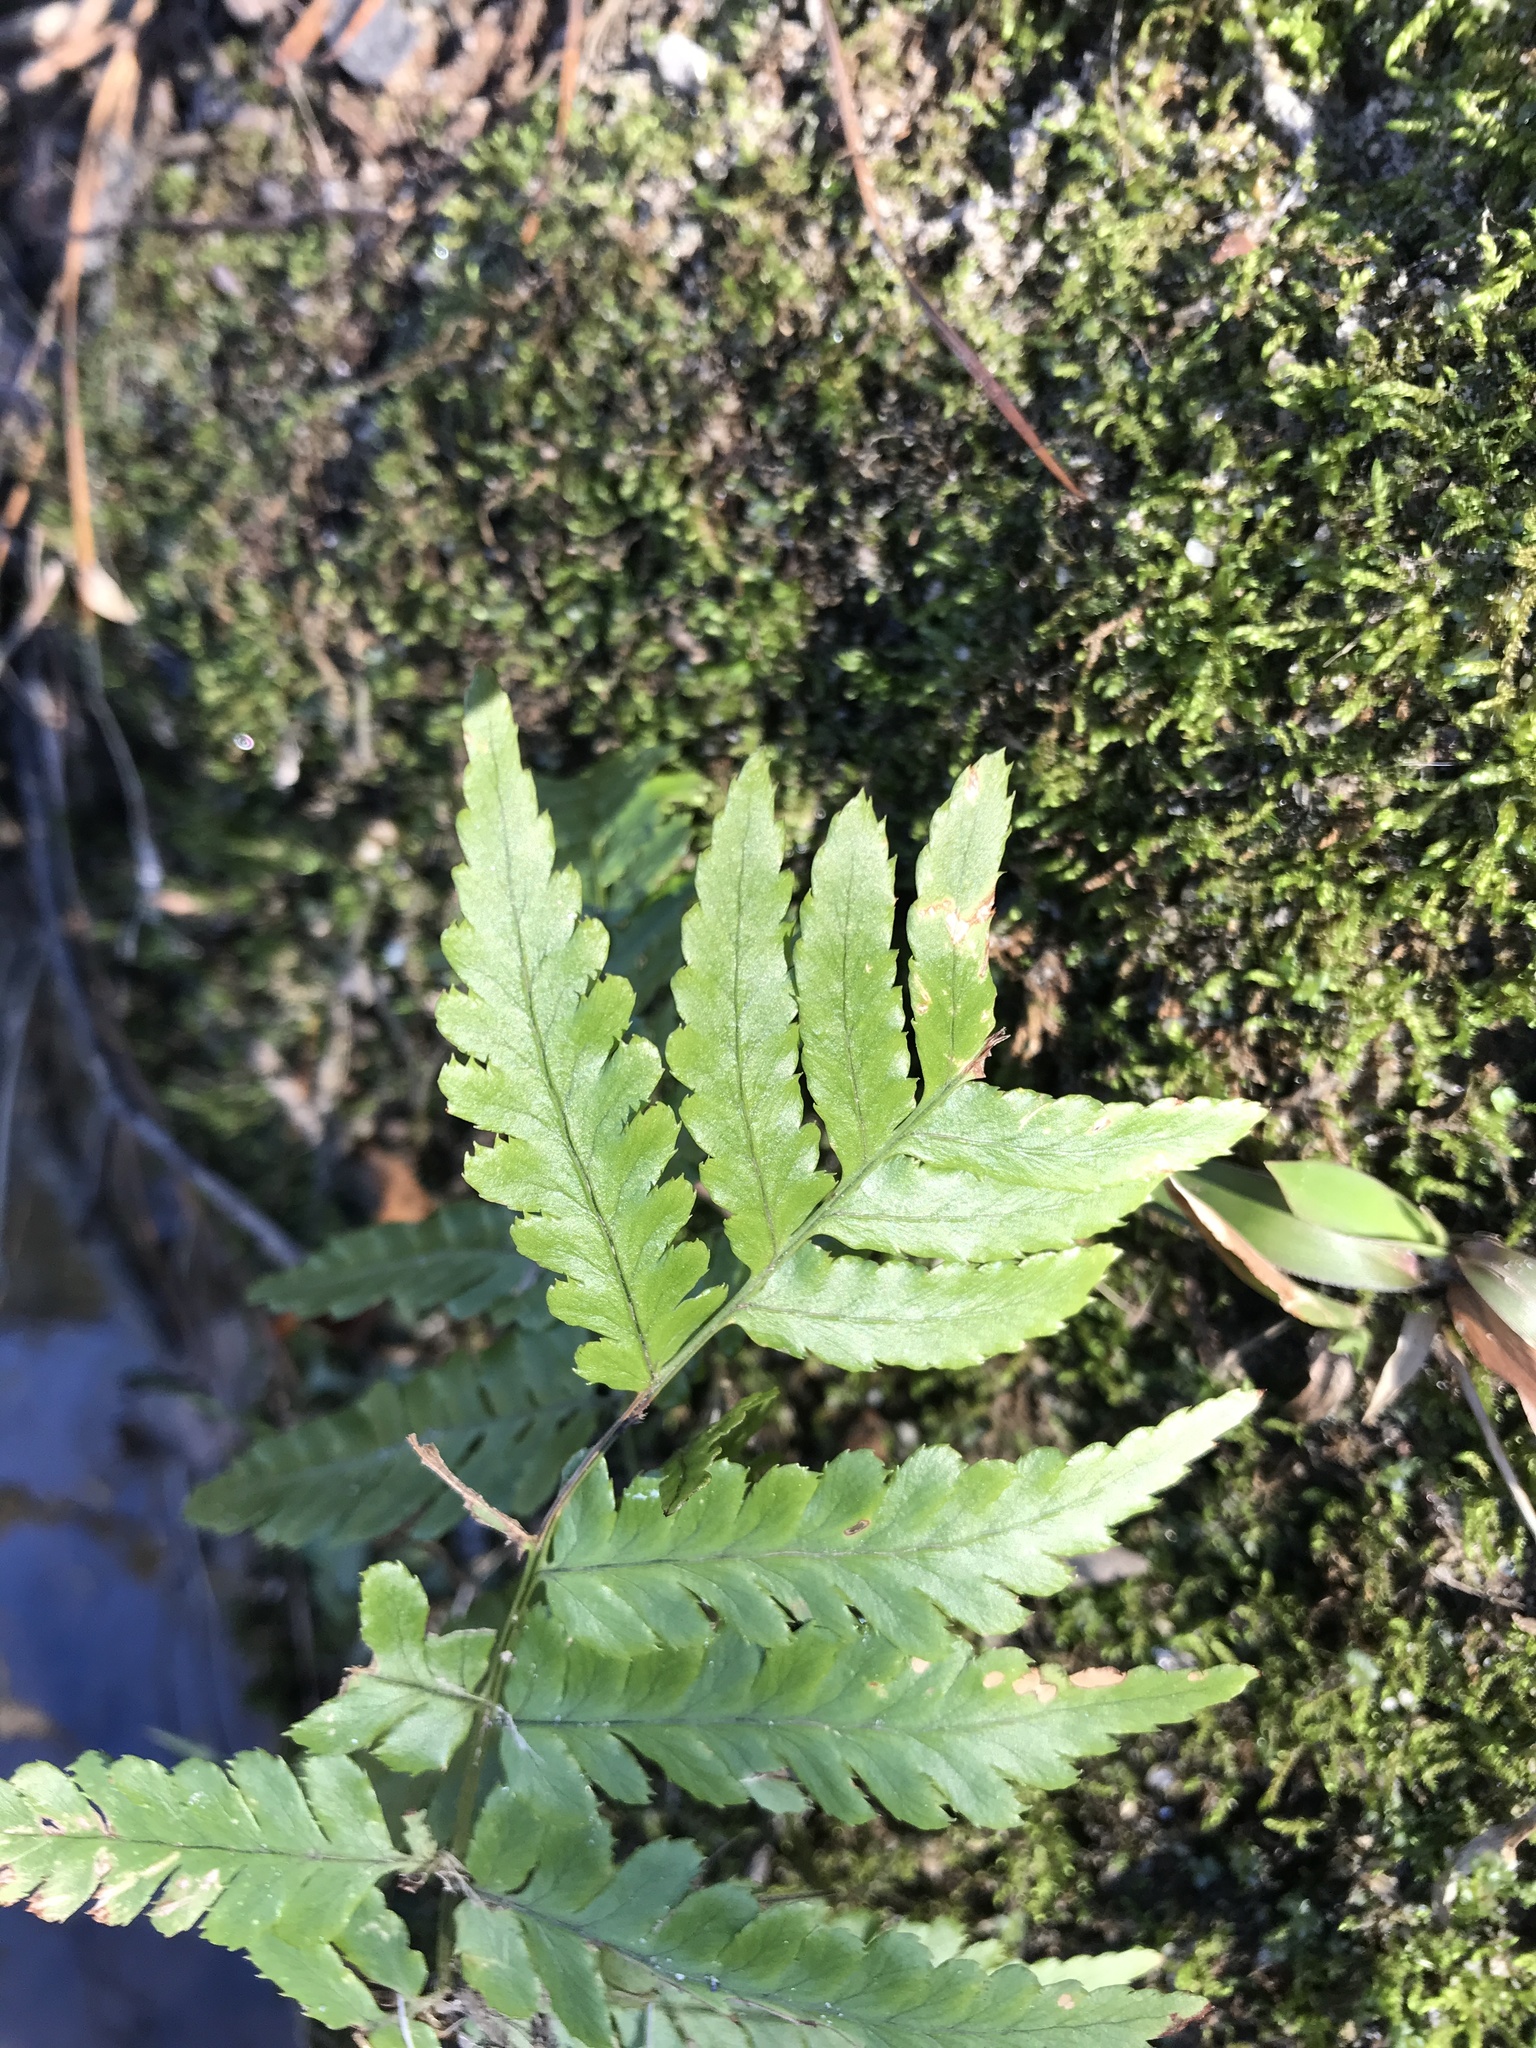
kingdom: Plantae
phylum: Tracheophyta
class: Polypodiopsida
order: Polypodiales
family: Dryopteridaceae
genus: Dryopteris
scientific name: Dryopteris erythrosora
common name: Autumn fern
